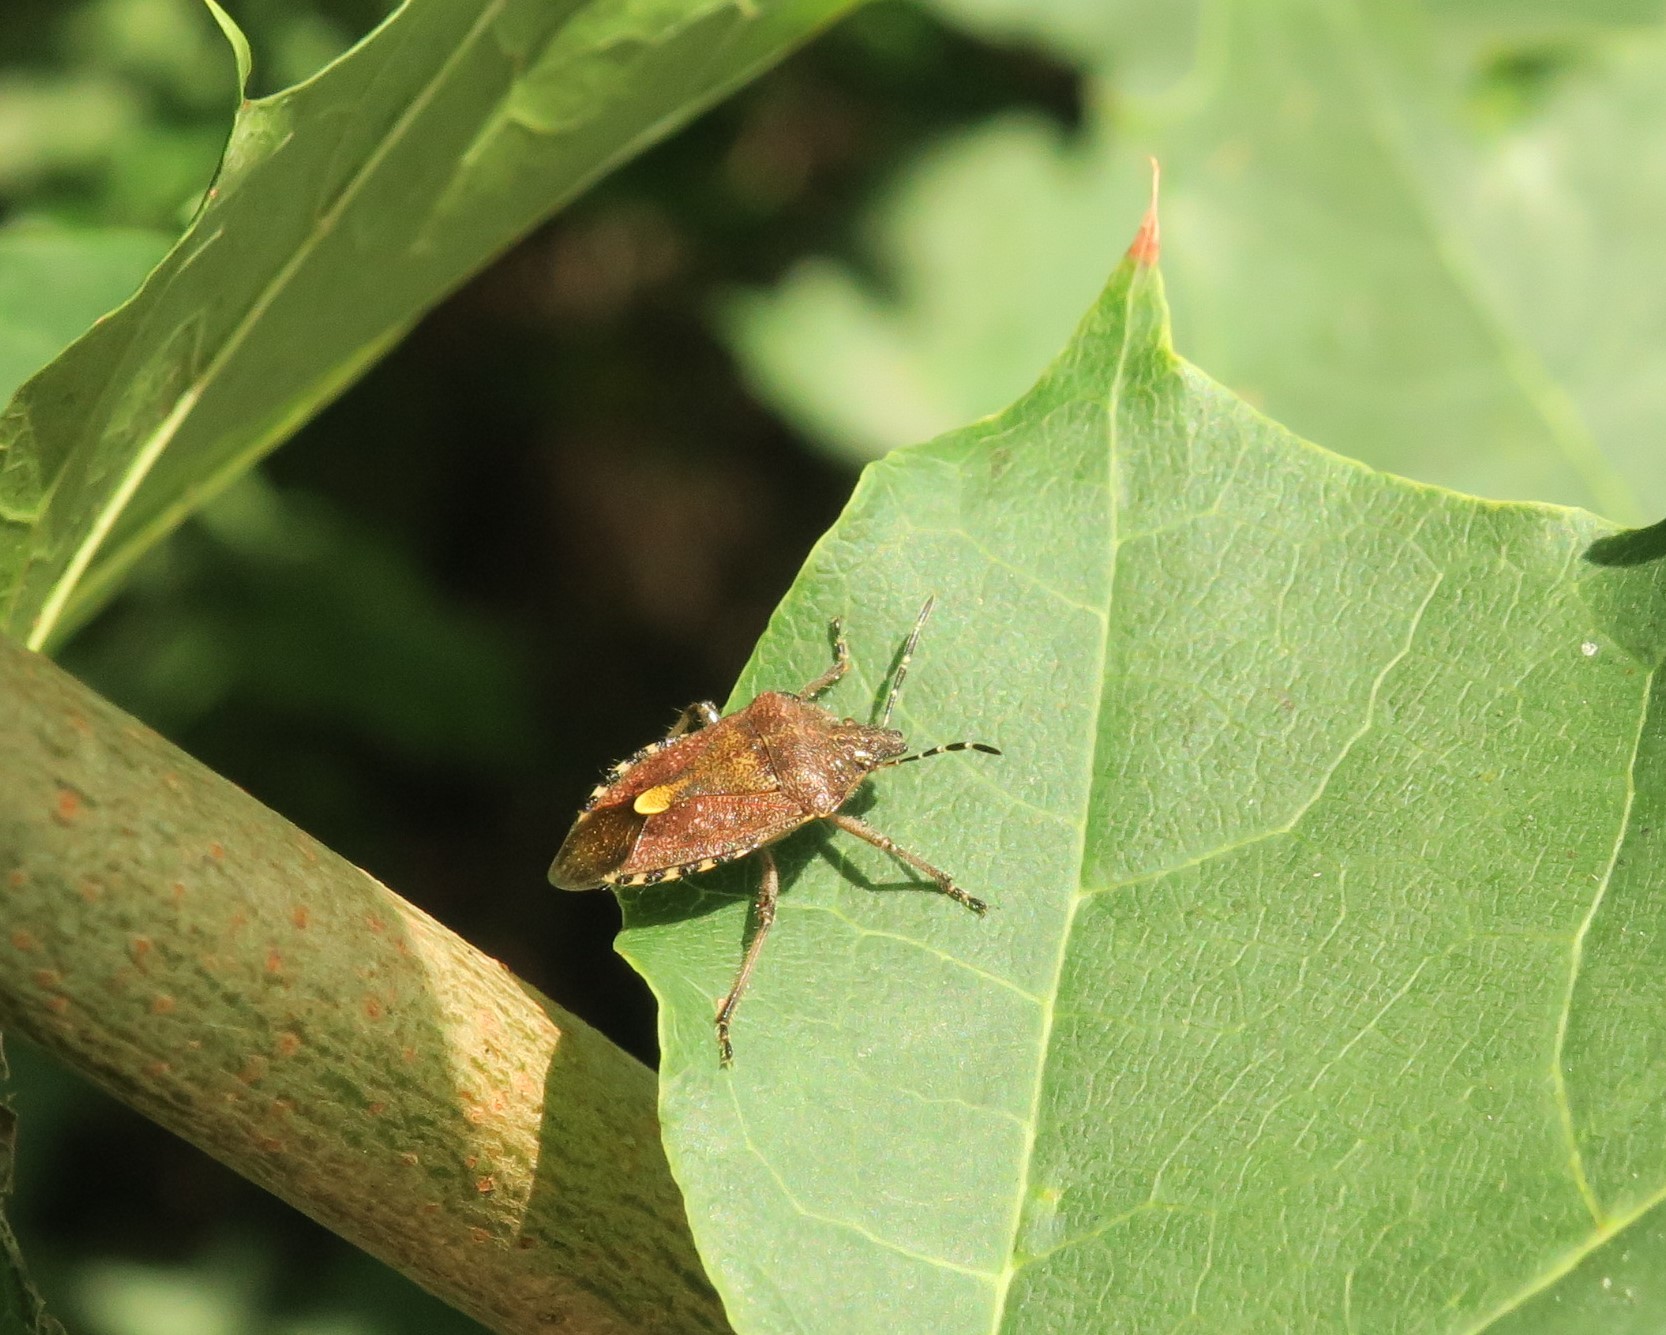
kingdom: Animalia
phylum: Arthropoda
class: Insecta
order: Hemiptera
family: Pentatomidae
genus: Dolycoris
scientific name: Dolycoris baccarum
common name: Sloe bug
